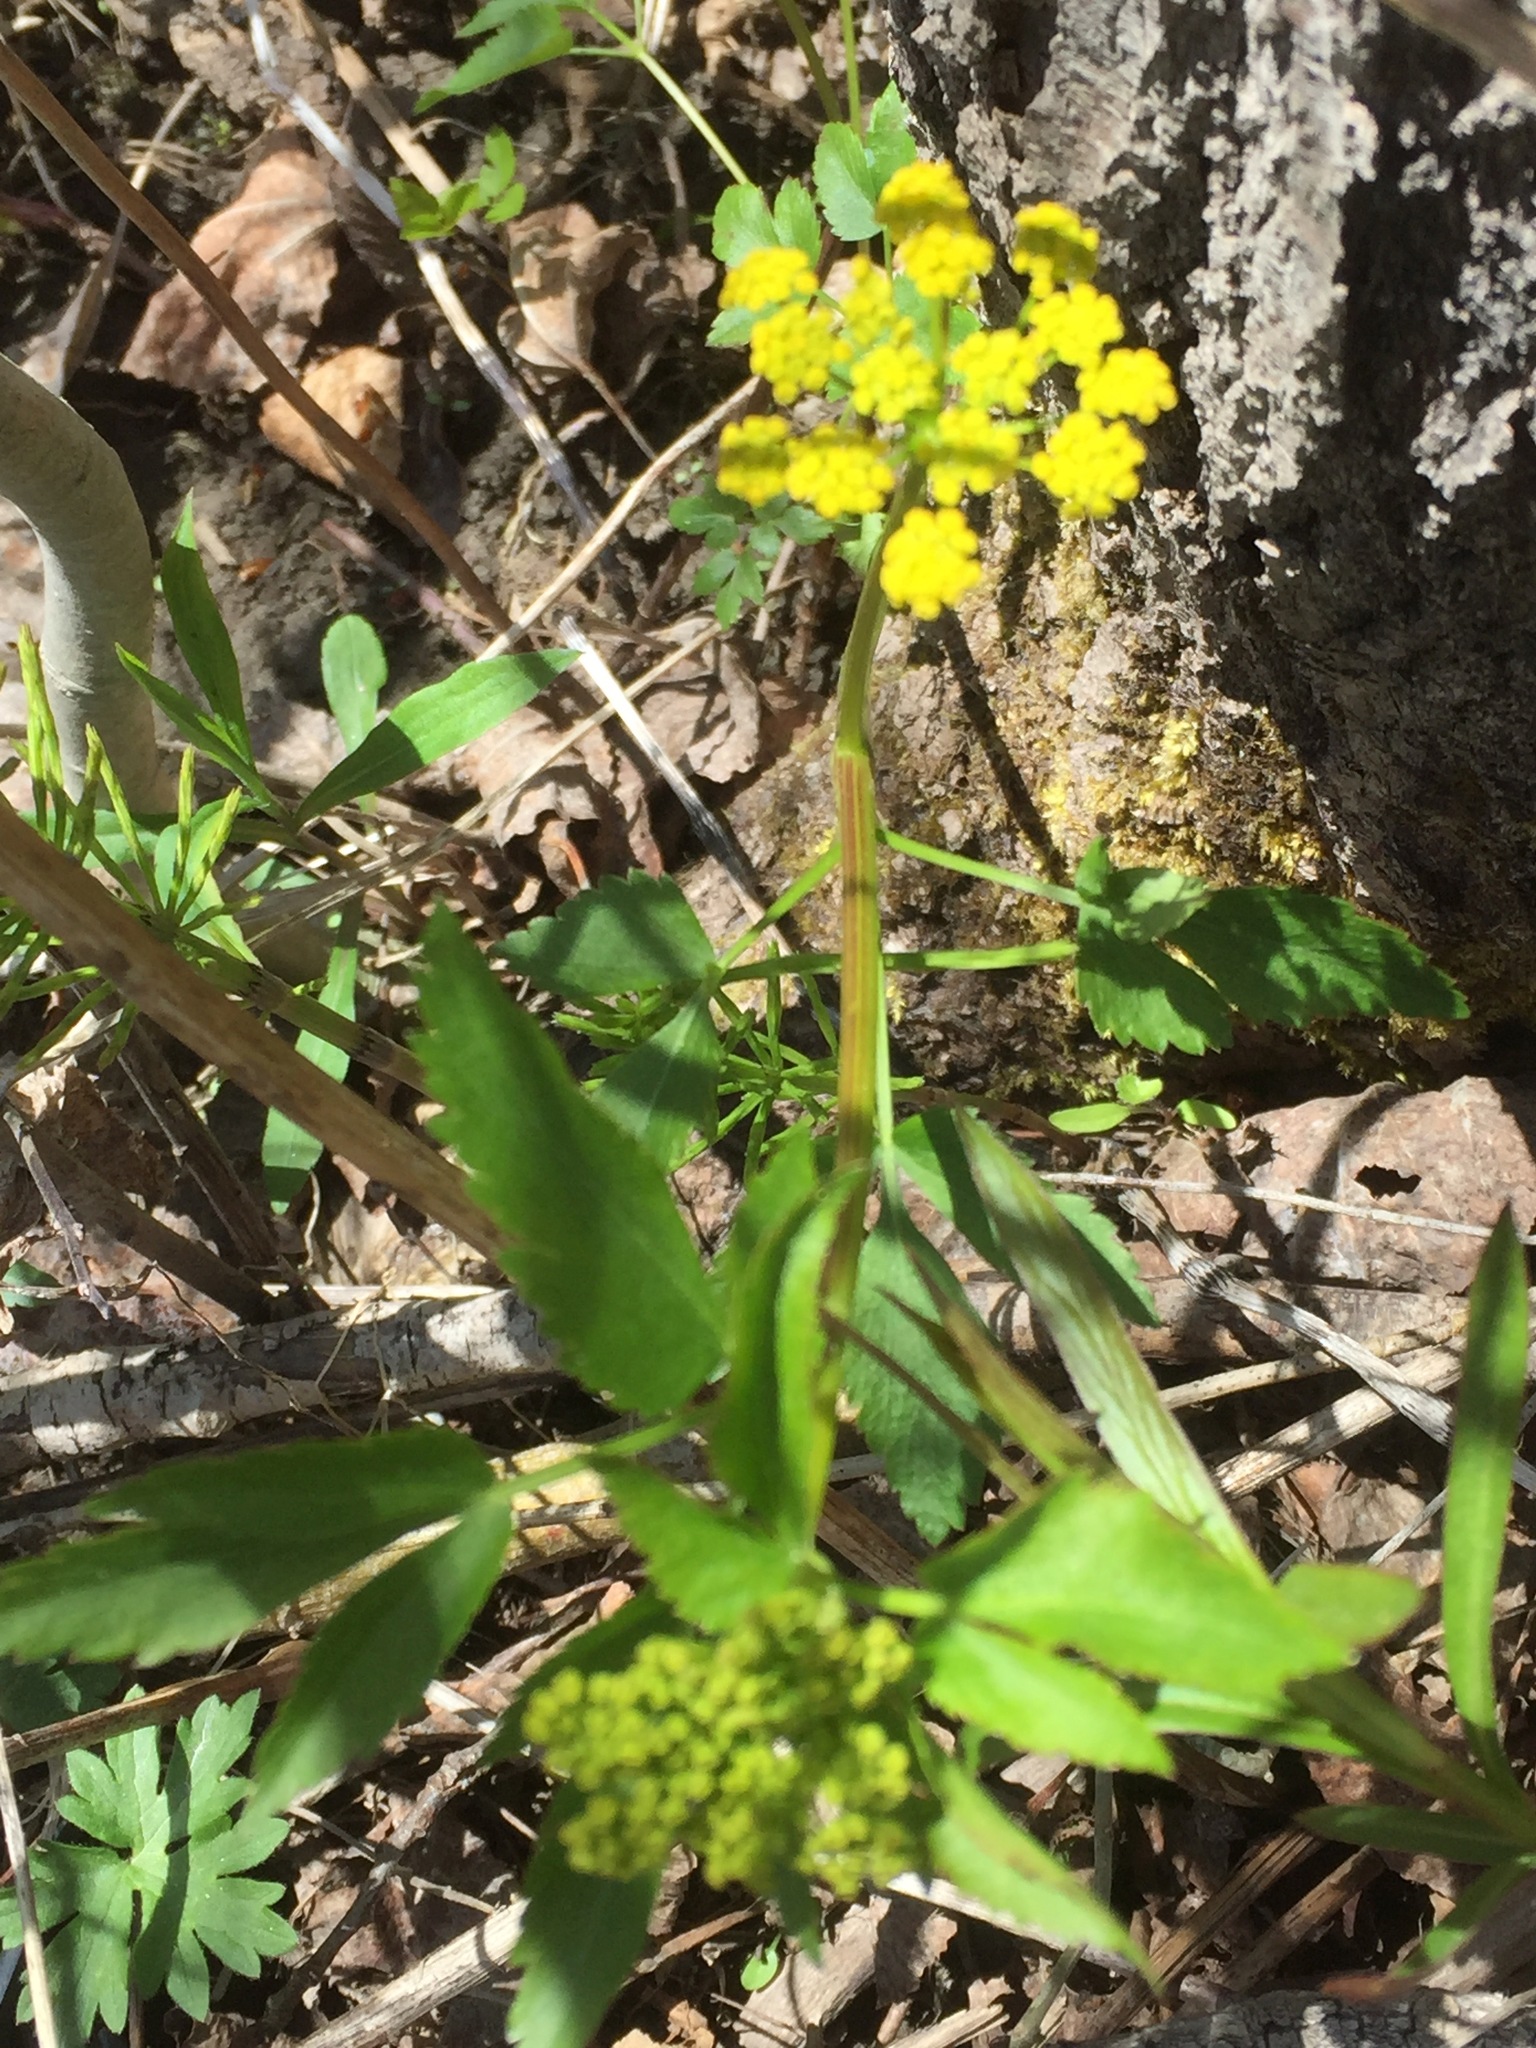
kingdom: Plantae
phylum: Tracheophyta
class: Magnoliopsida
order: Apiales
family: Apiaceae
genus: Zizia
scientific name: Zizia aurea
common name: Golden alexanders
